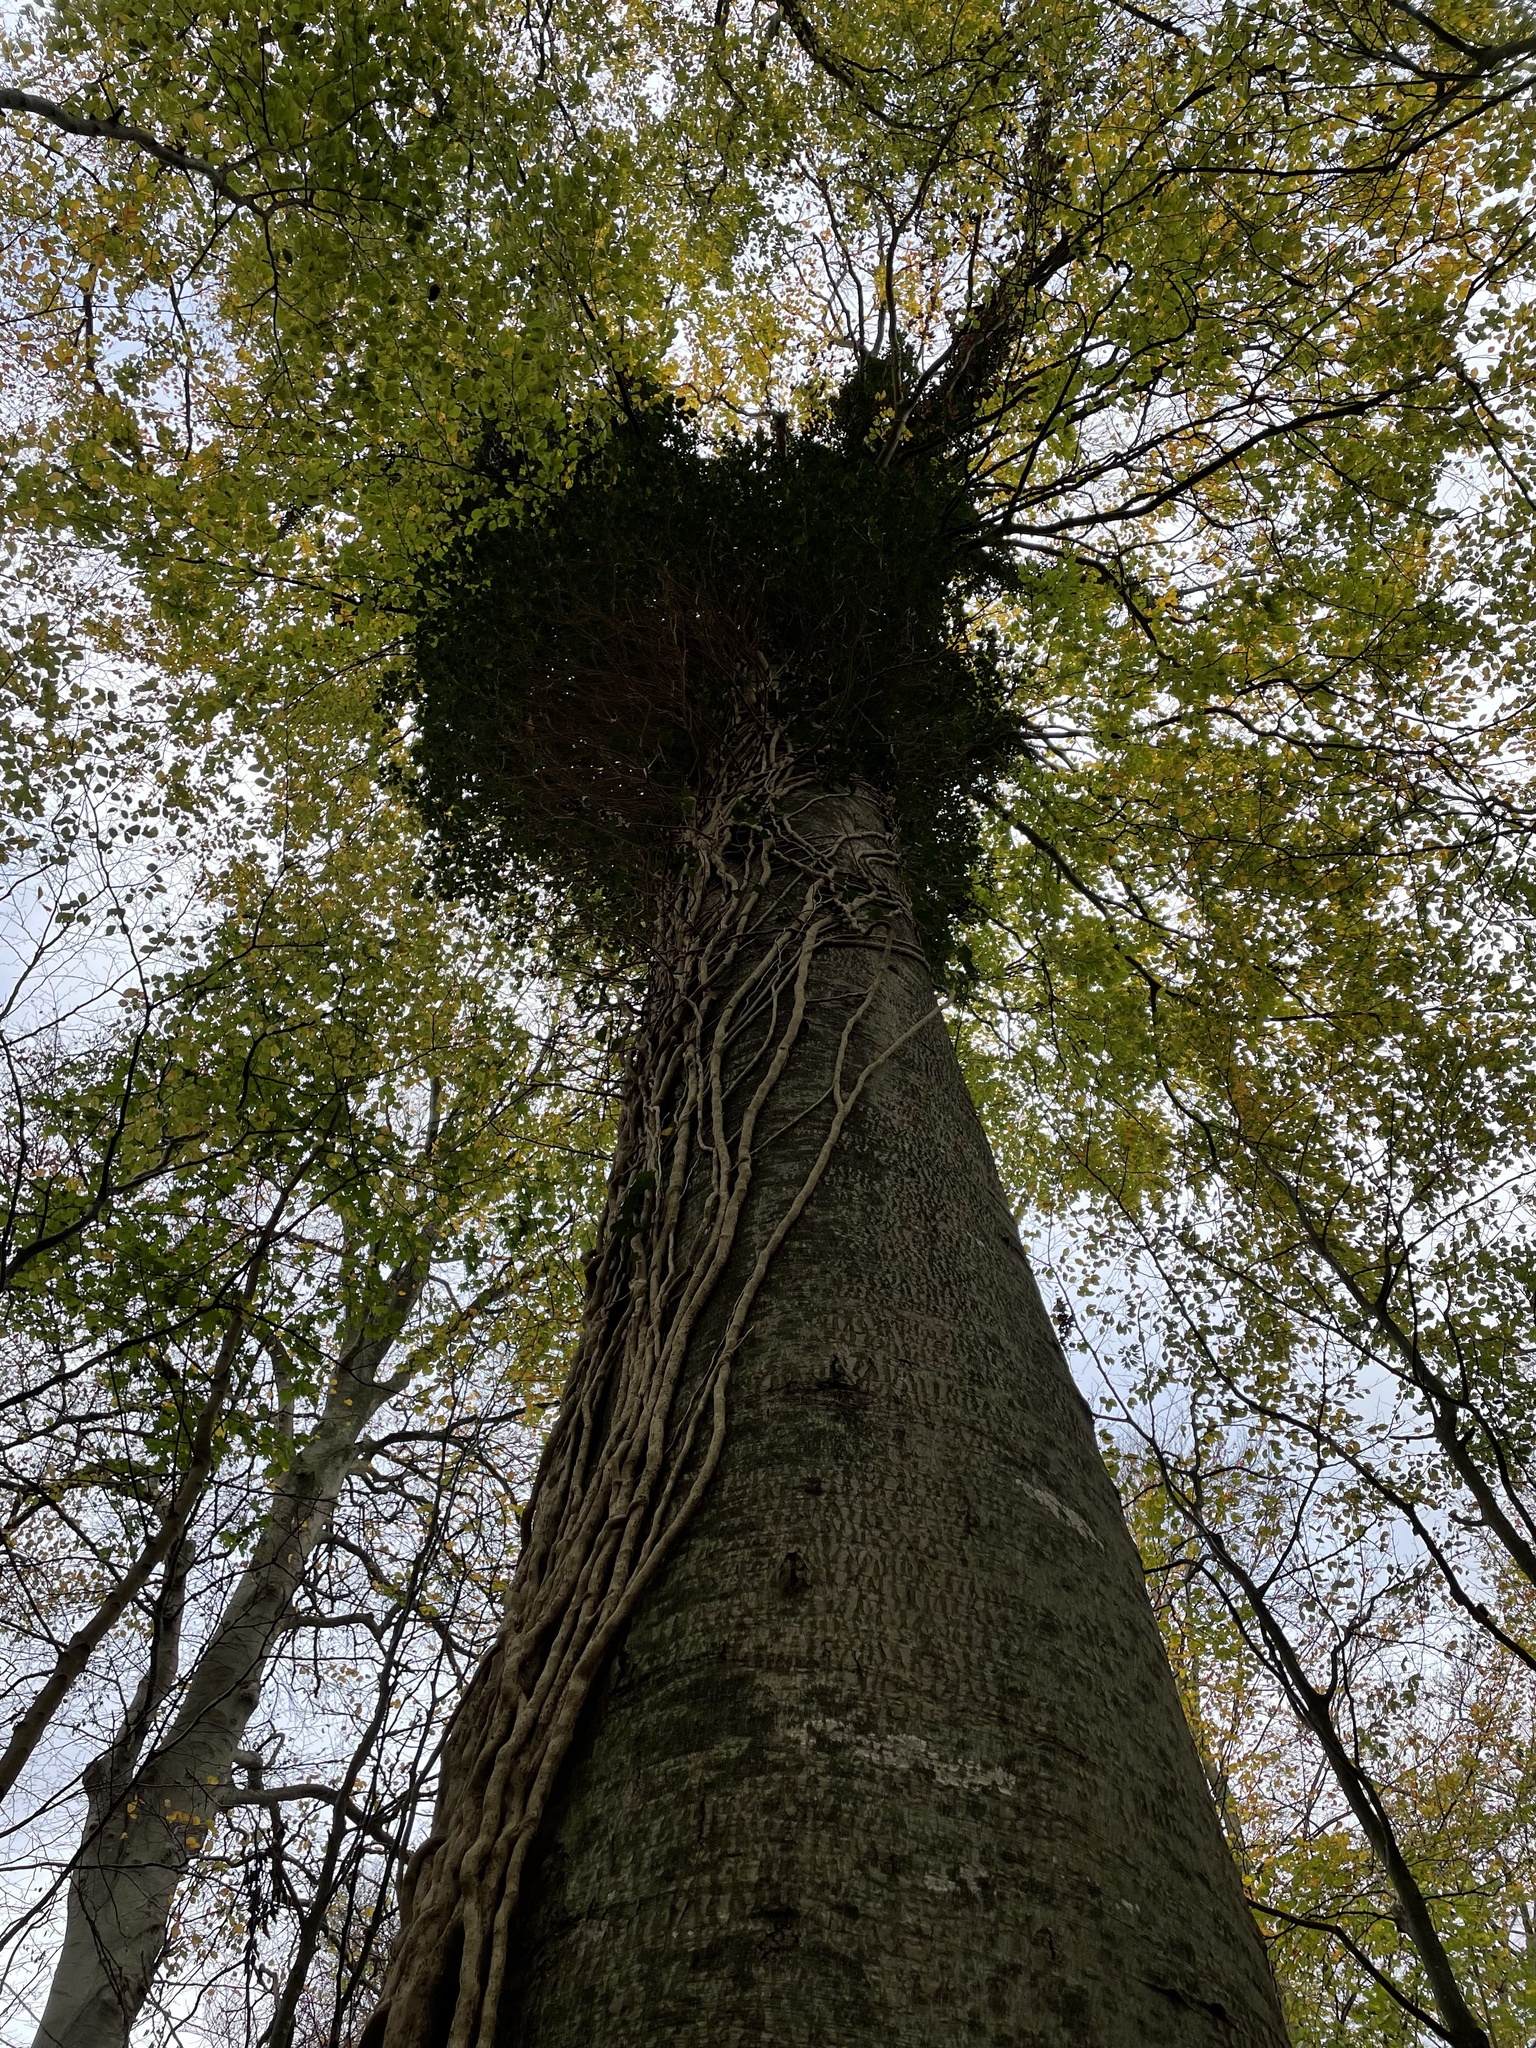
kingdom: Plantae
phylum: Tracheophyta
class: Magnoliopsida
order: Apiales
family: Araliaceae
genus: Hedera
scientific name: Hedera helix
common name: Ivy
